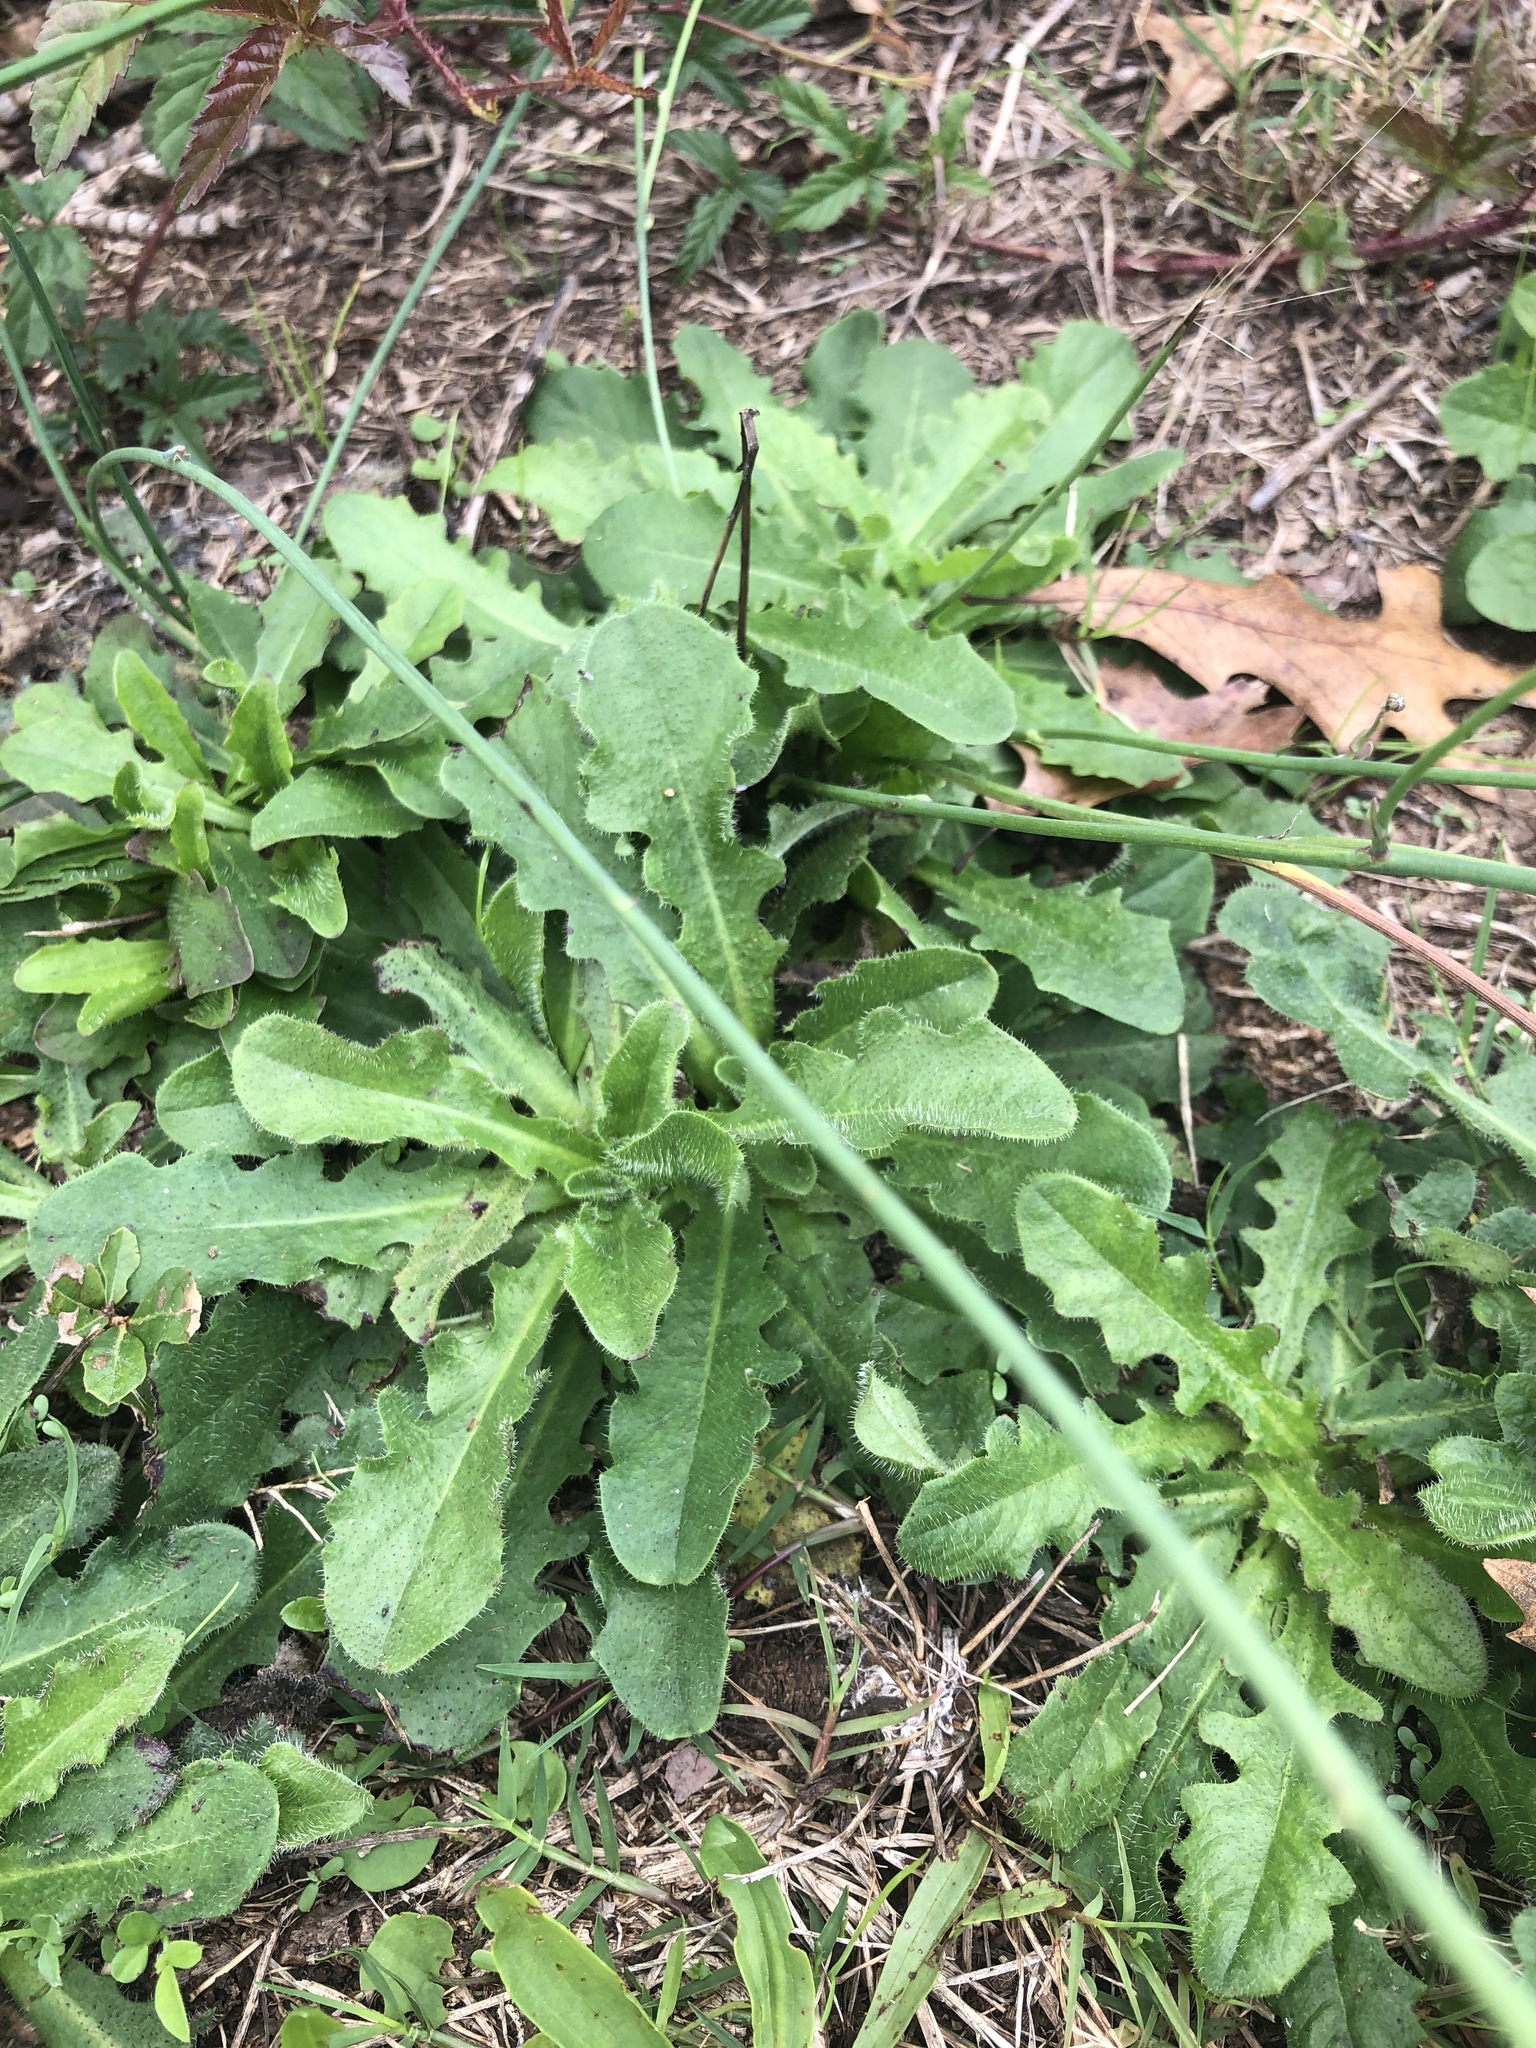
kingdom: Plantae
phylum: Tracheophyta
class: Magnoliopsida
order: Asterales
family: Asteraceae
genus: Hypochaeris
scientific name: Hypochaeris radicata
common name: Flatweed
